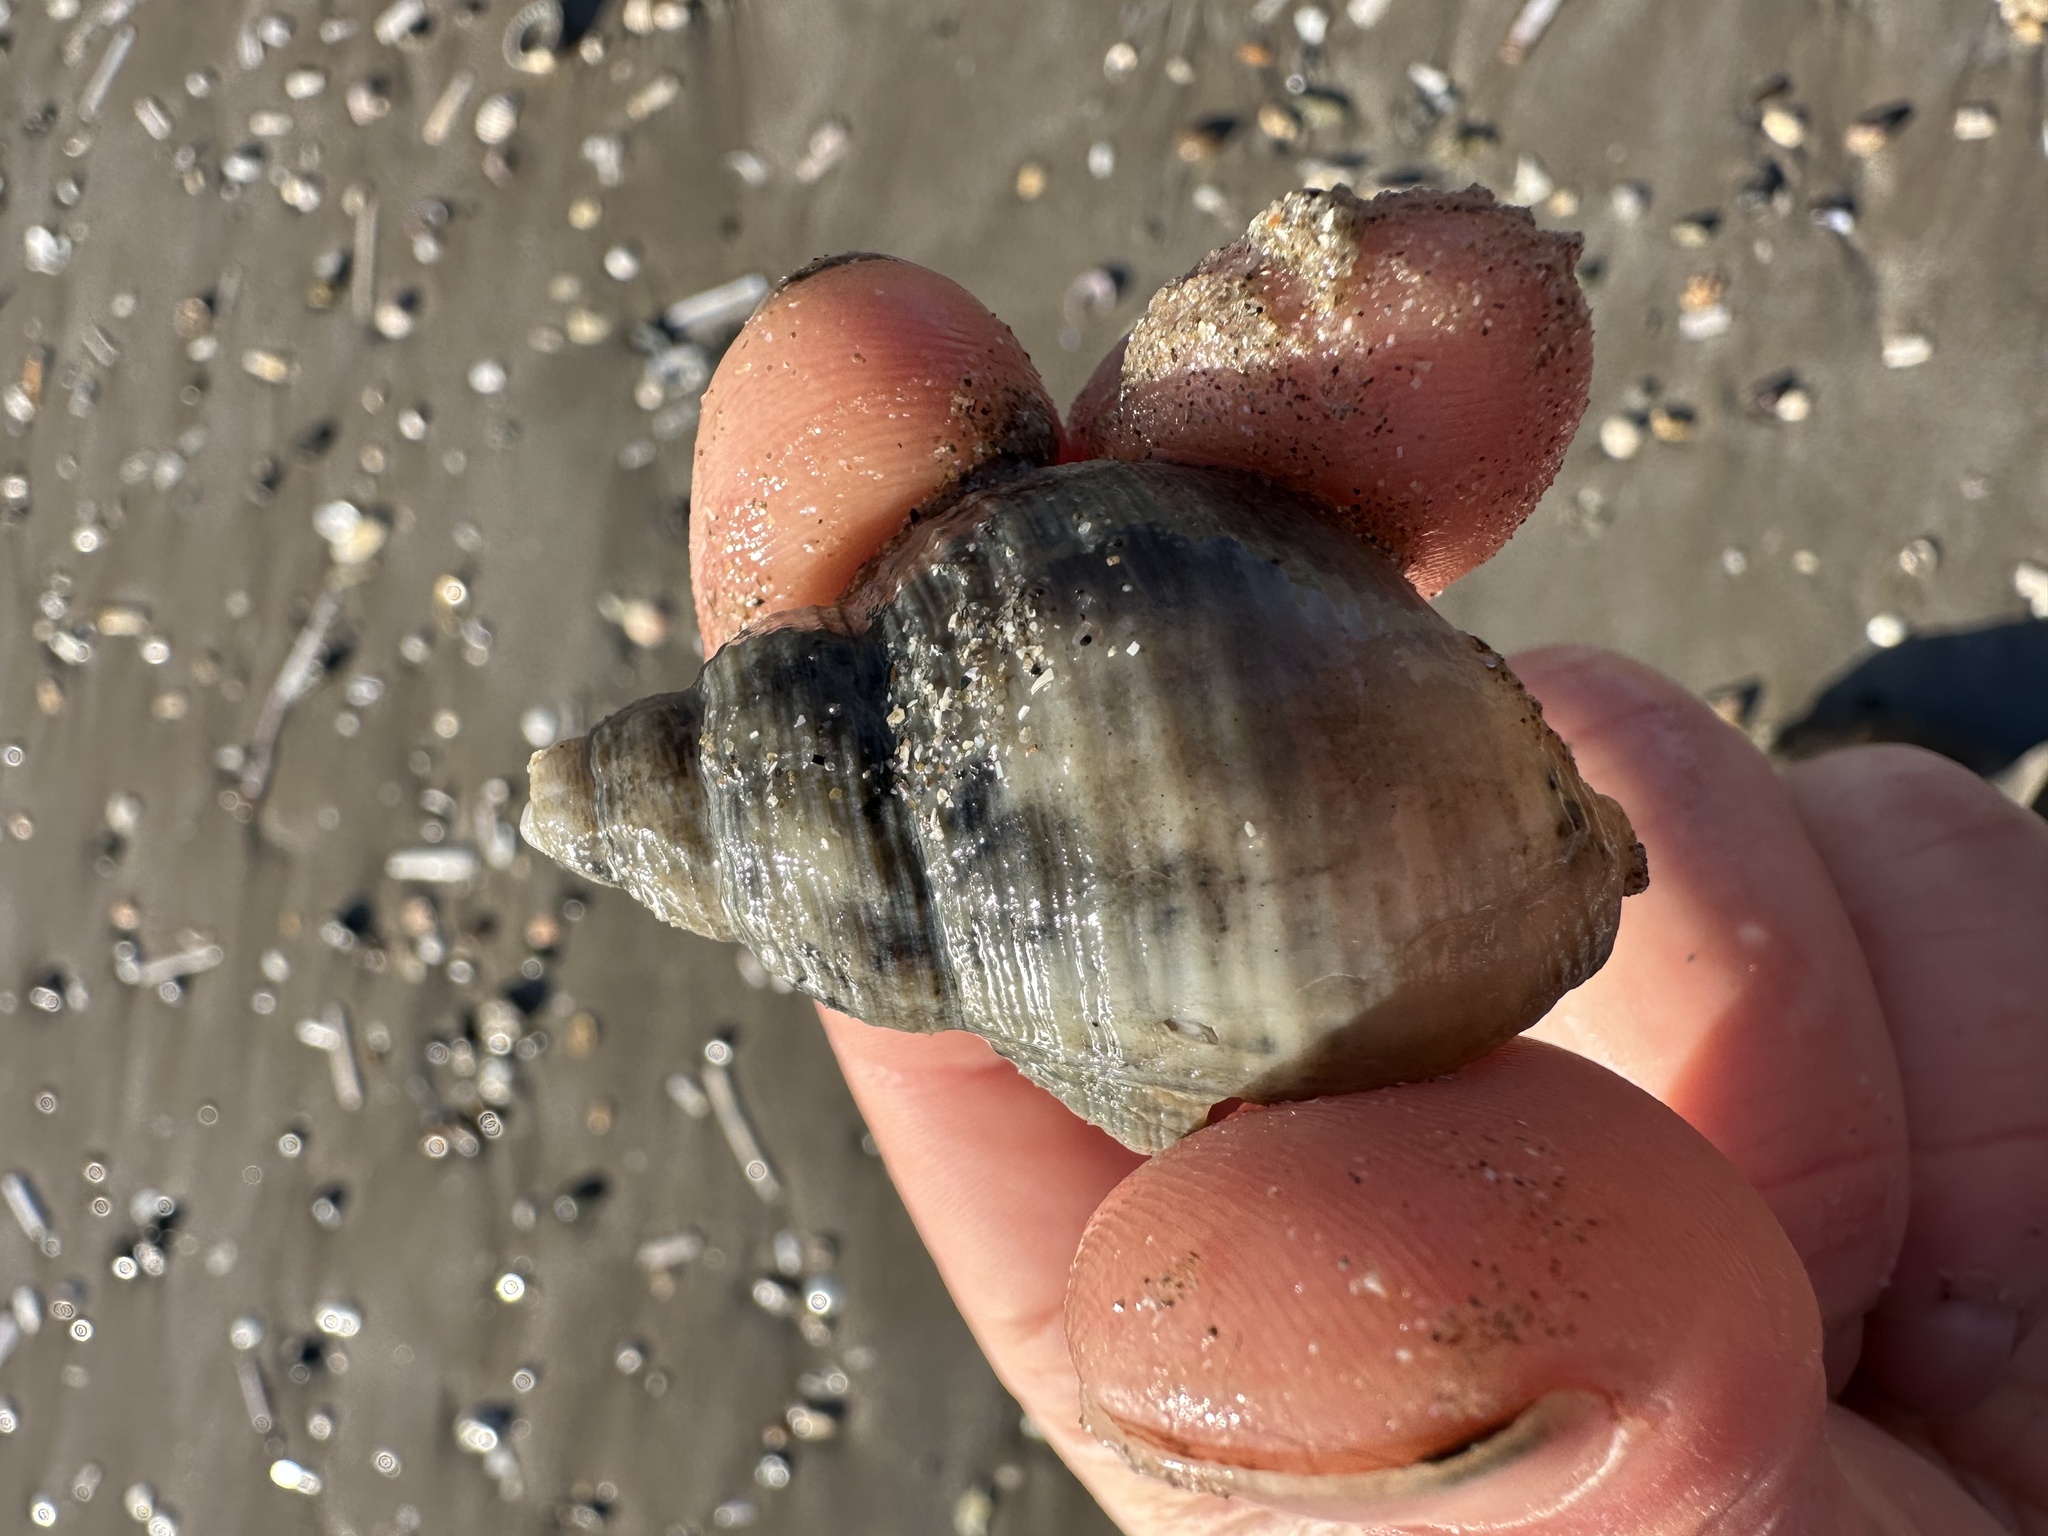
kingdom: Animalia
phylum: Mollusca
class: Gastropoda
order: Neogastropoda
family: Buccinidae
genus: Buccinum
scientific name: Buccinum undatum
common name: Common whelk
